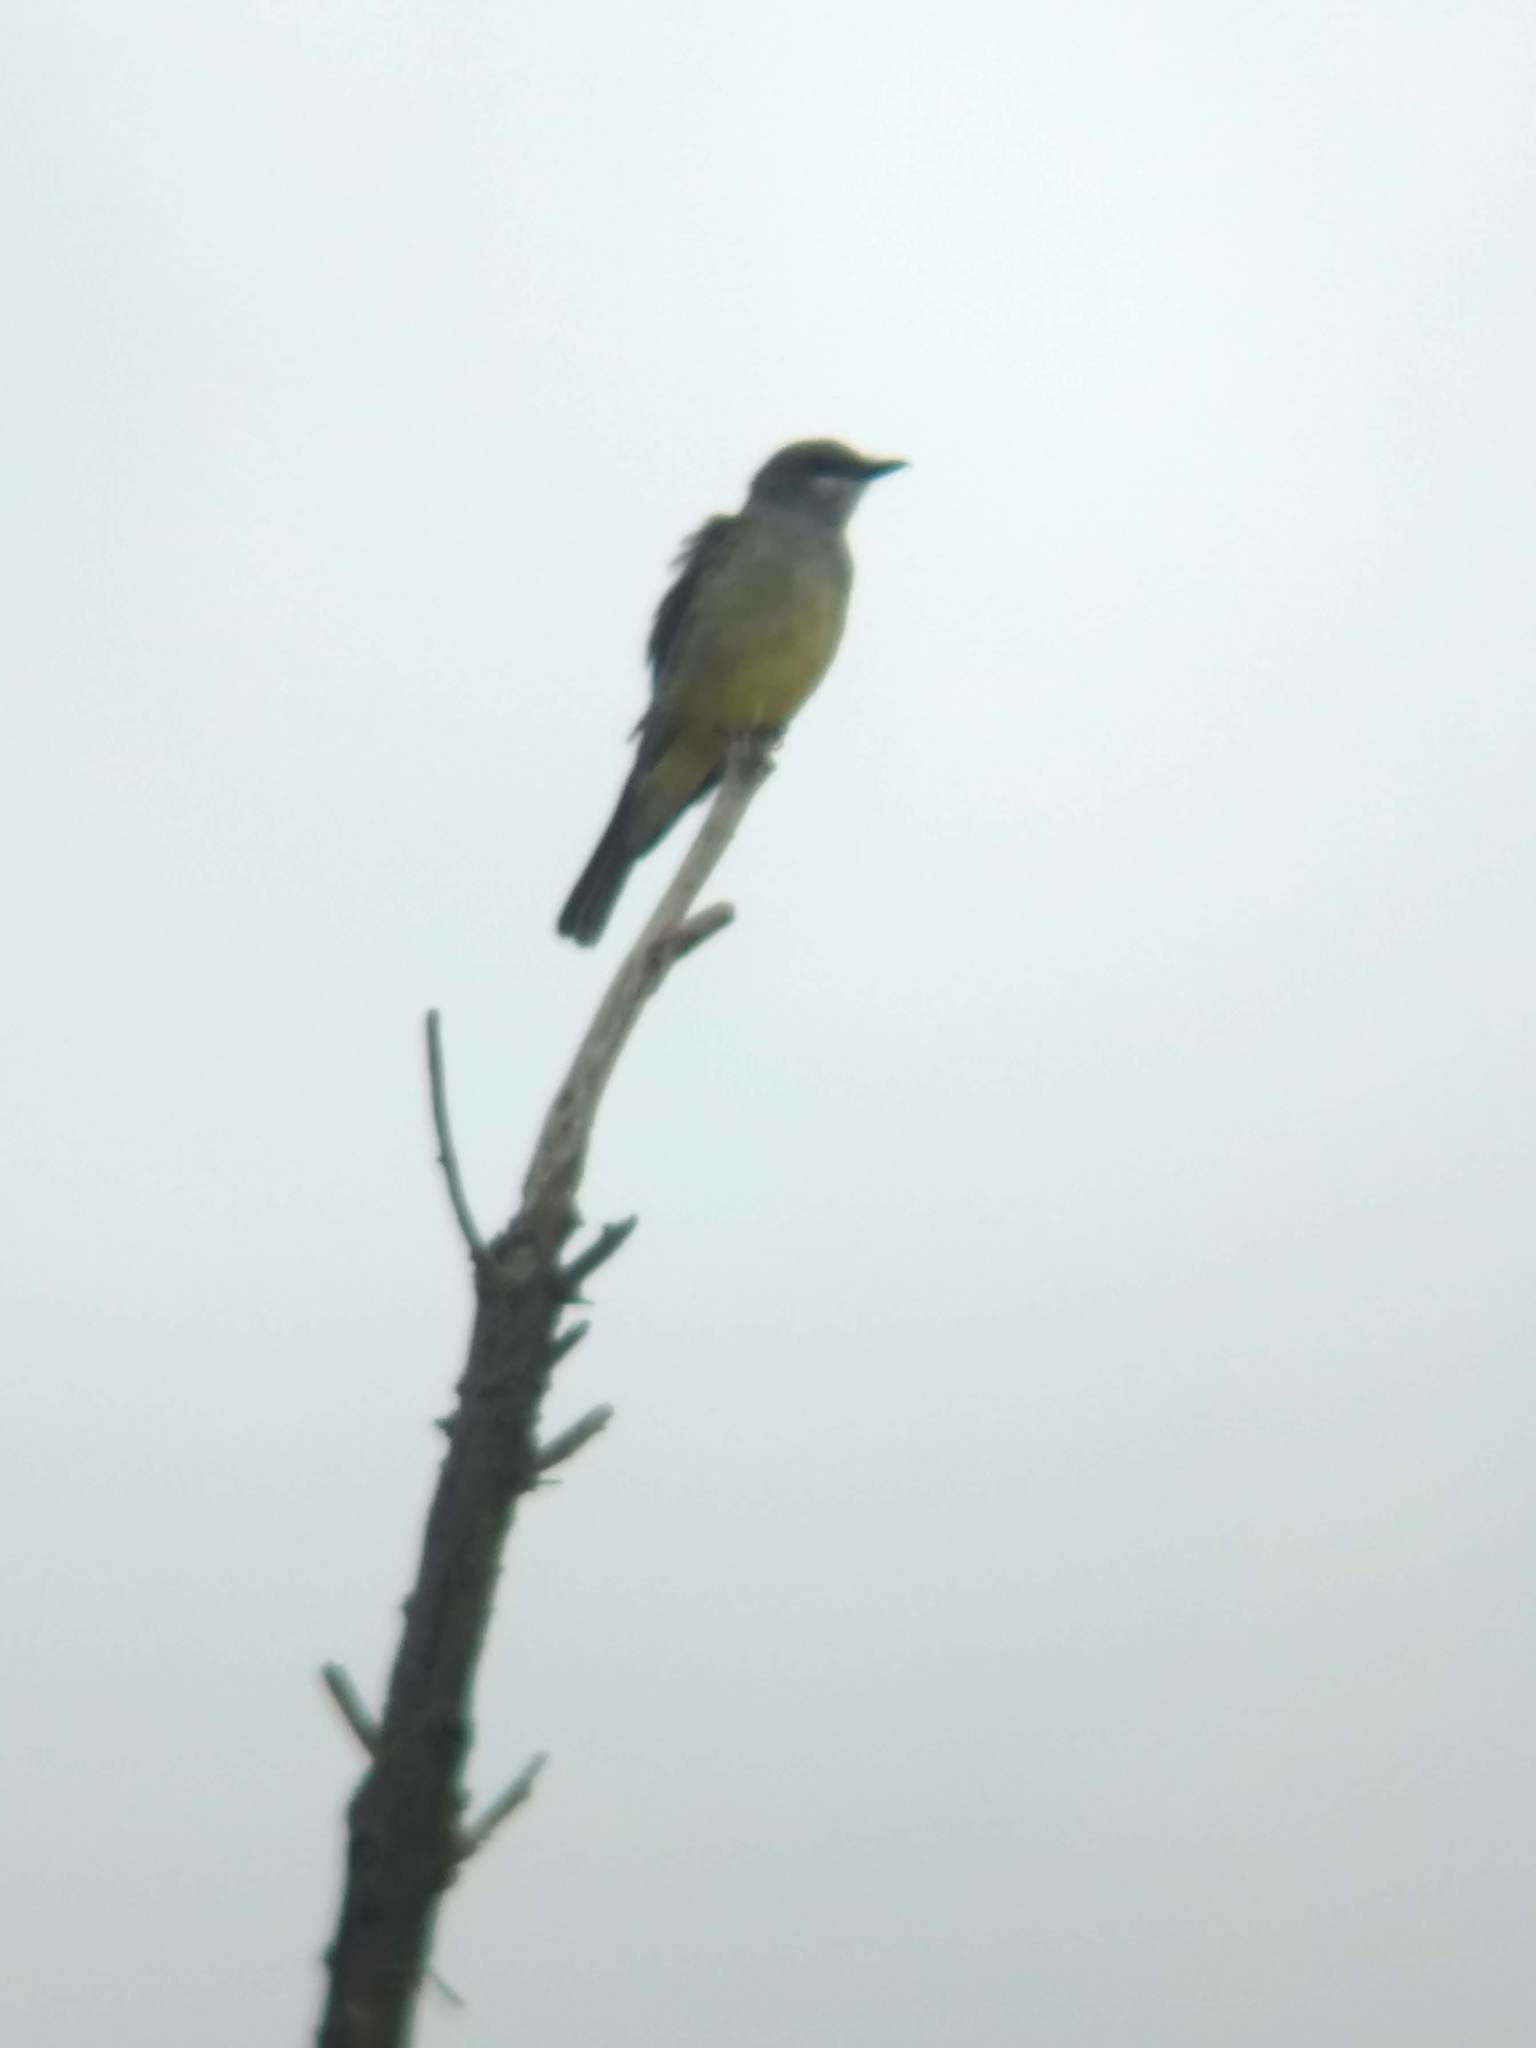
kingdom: Animalia
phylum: Chordata
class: Aves
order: Passeriformes
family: Tyrannidae
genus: Tyrannus
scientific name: Tyrannus vociferans
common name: Cassin's kingbird
